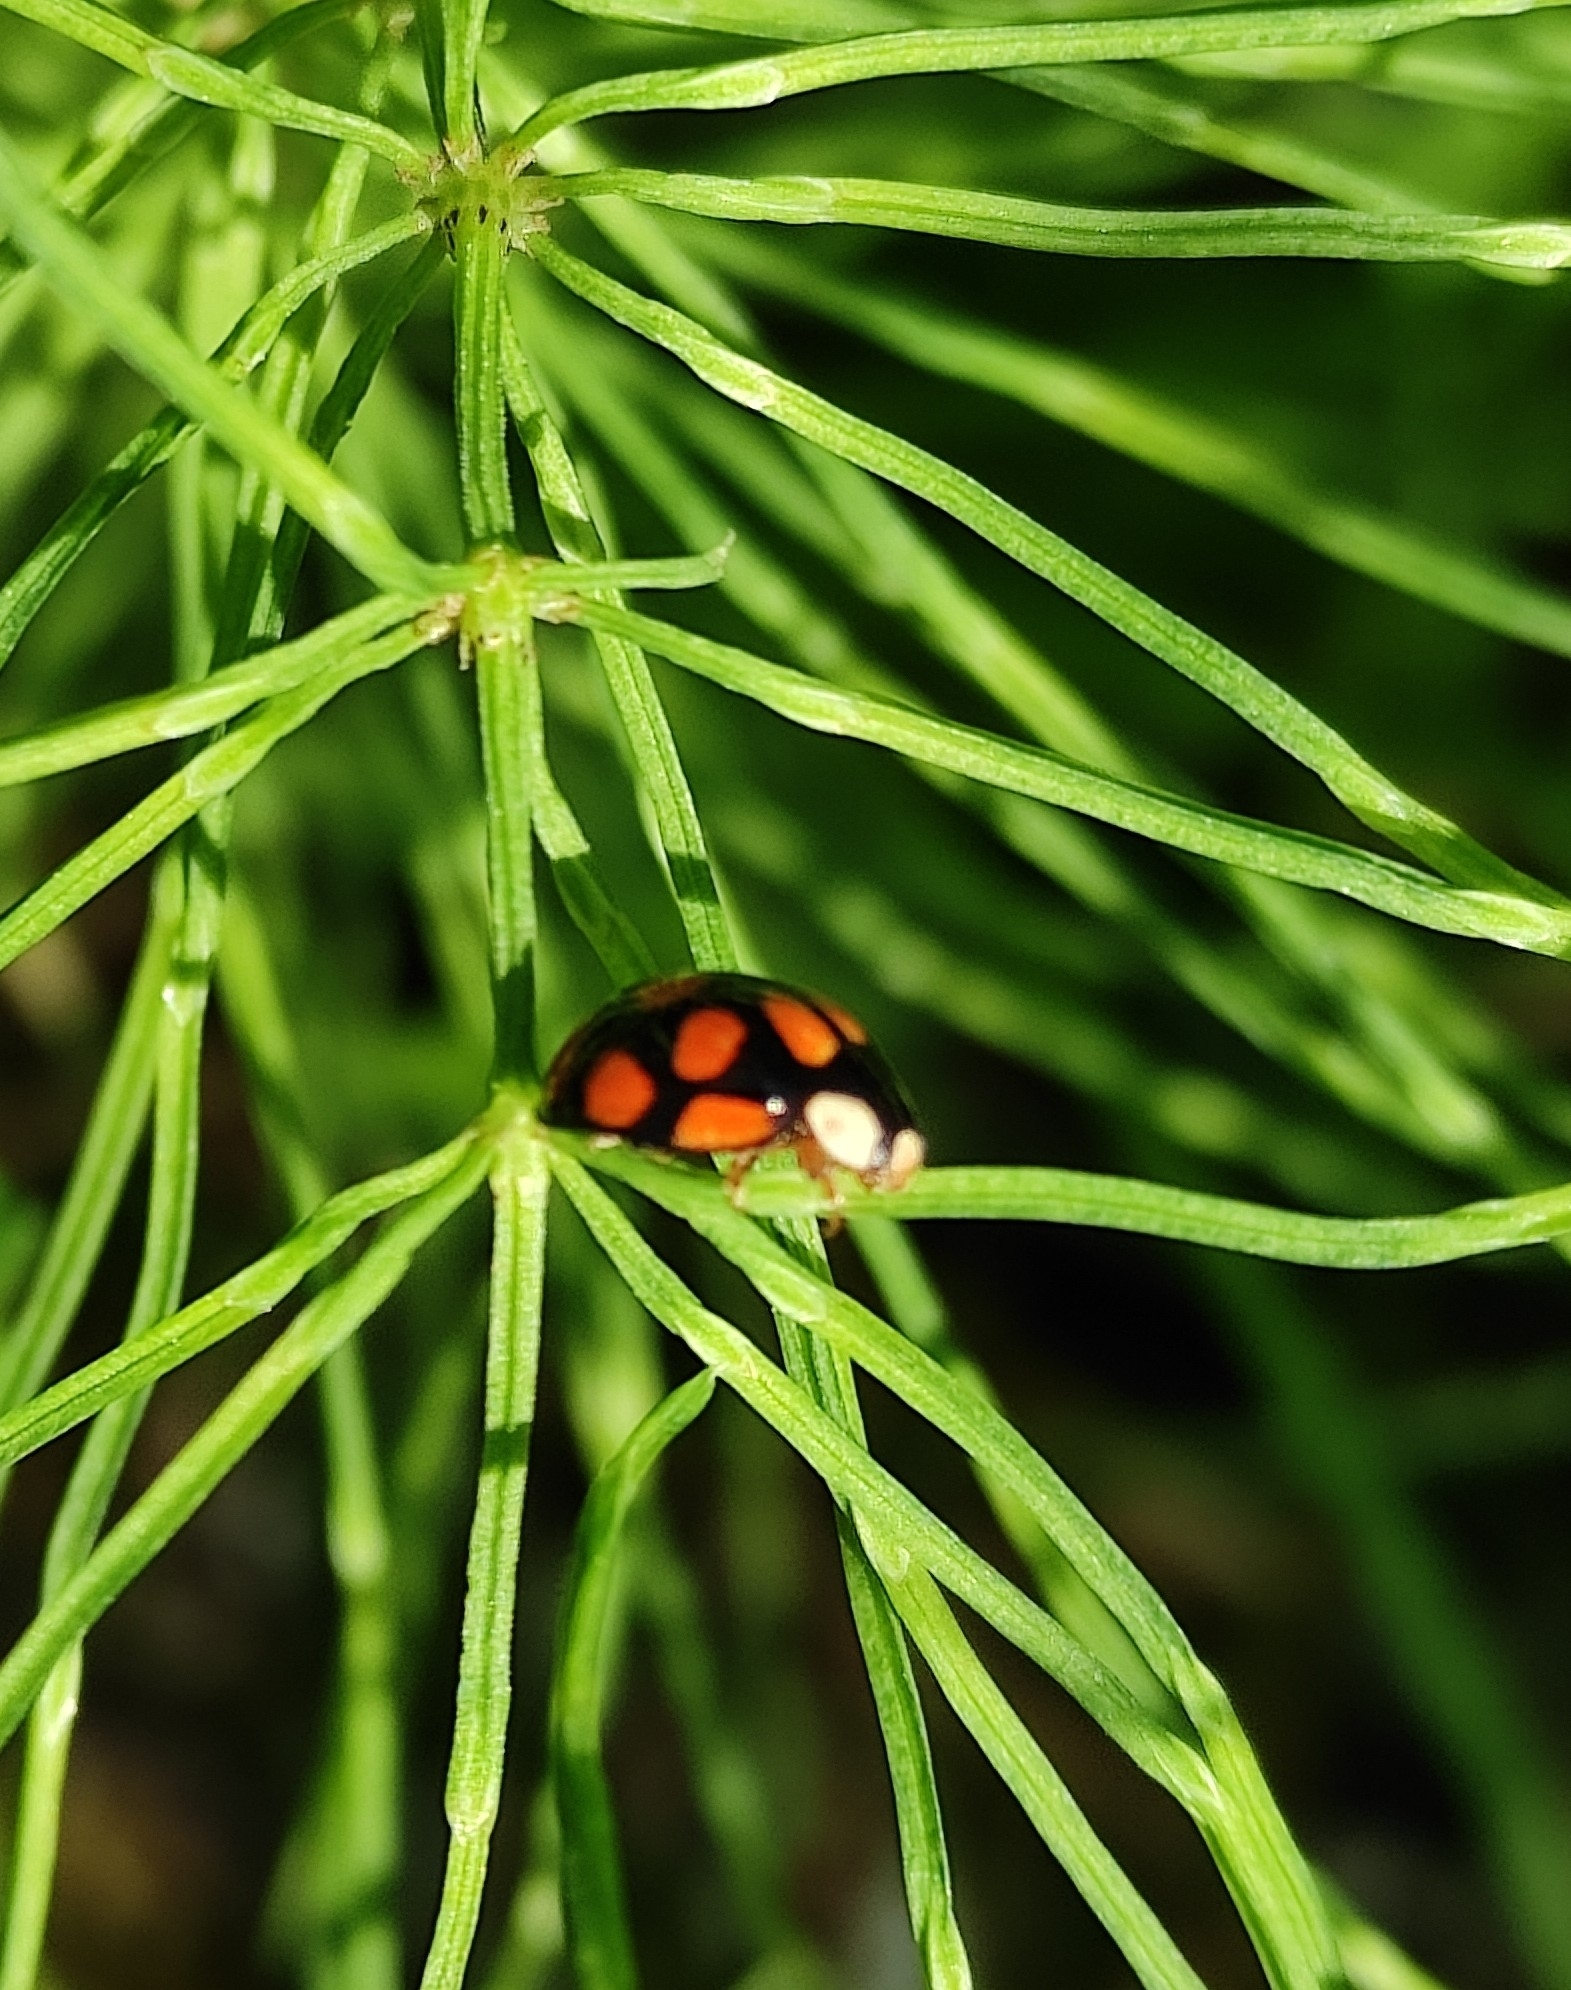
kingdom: Animalia
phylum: Arthropoda
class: Insecta
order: Coleoptera
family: Coccinellidae
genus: Harmonia
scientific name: Harmonia axyridis
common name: Harlequin ladybird
